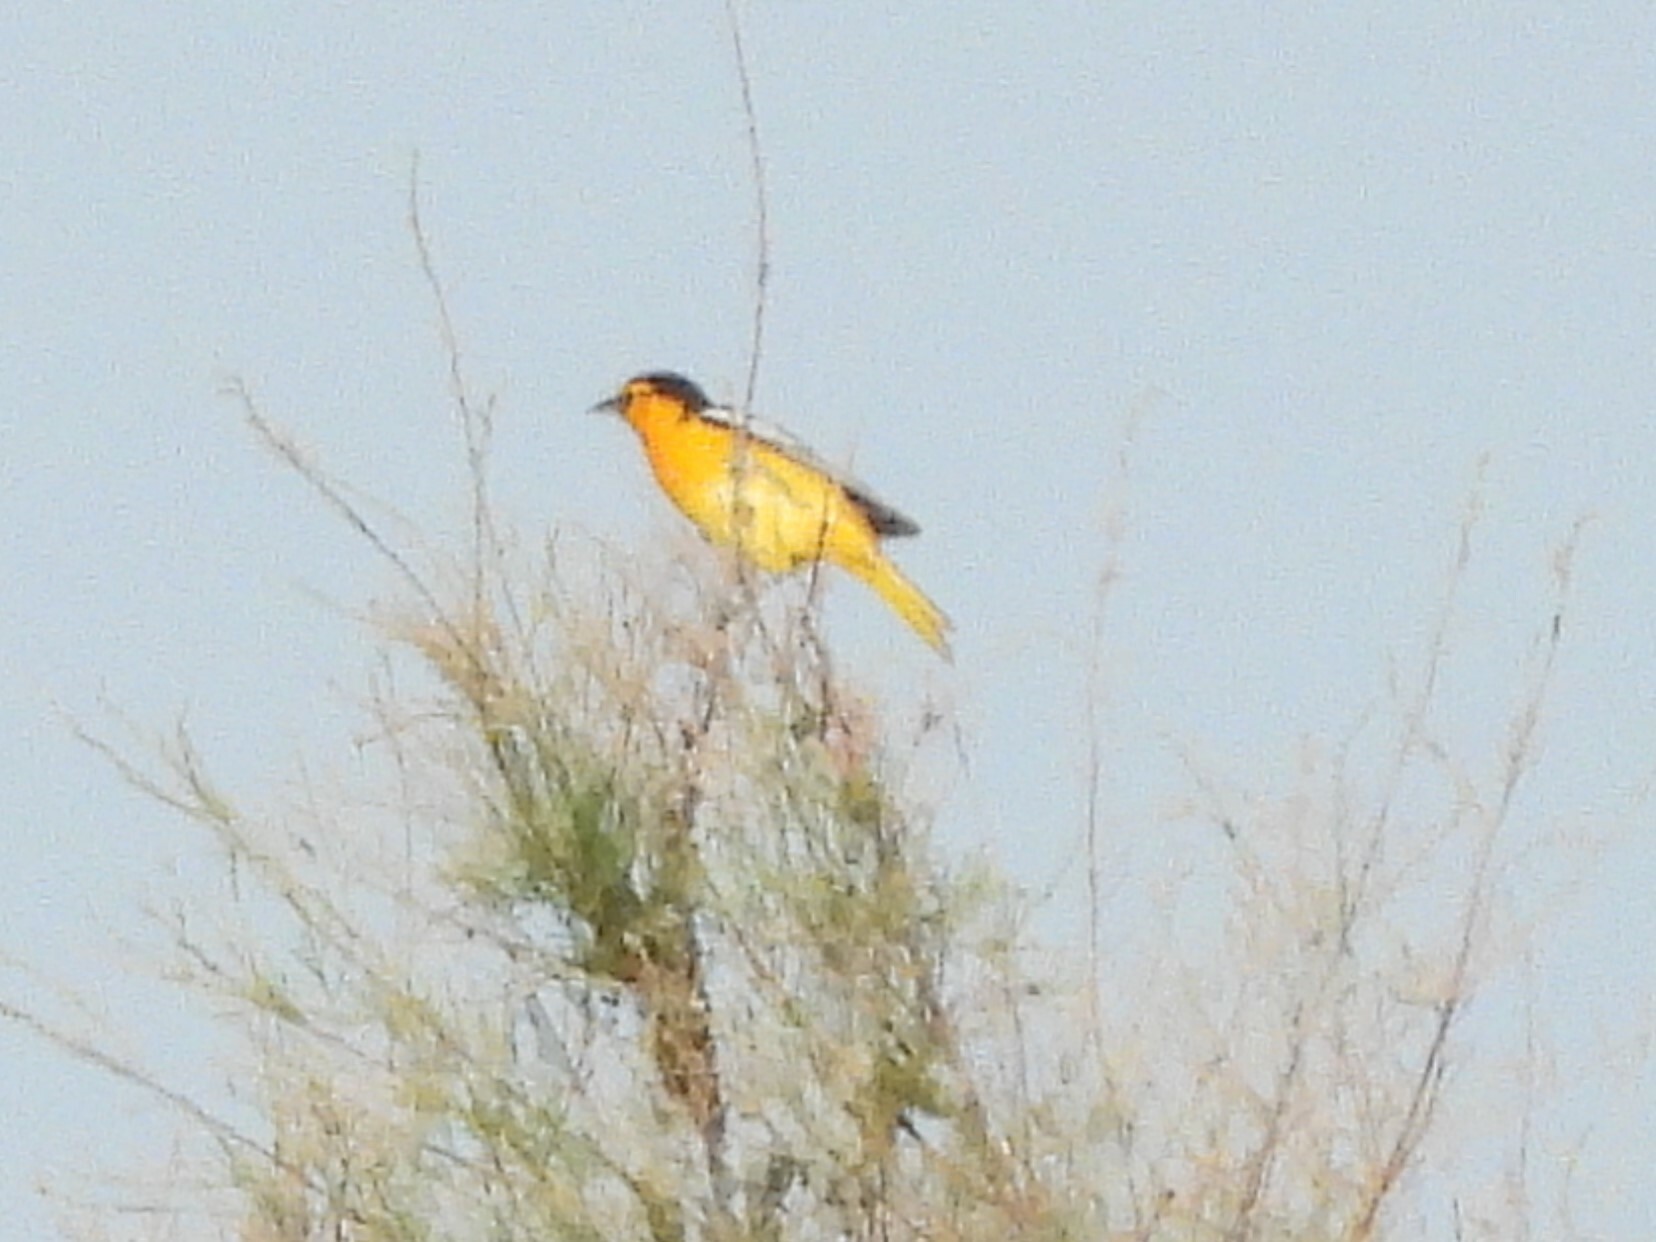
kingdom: Animalia
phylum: Chordata
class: Aves
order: Passeriformes
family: Icteridae
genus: Icterus
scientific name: Icterus bullockii
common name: Bullock's oriole
